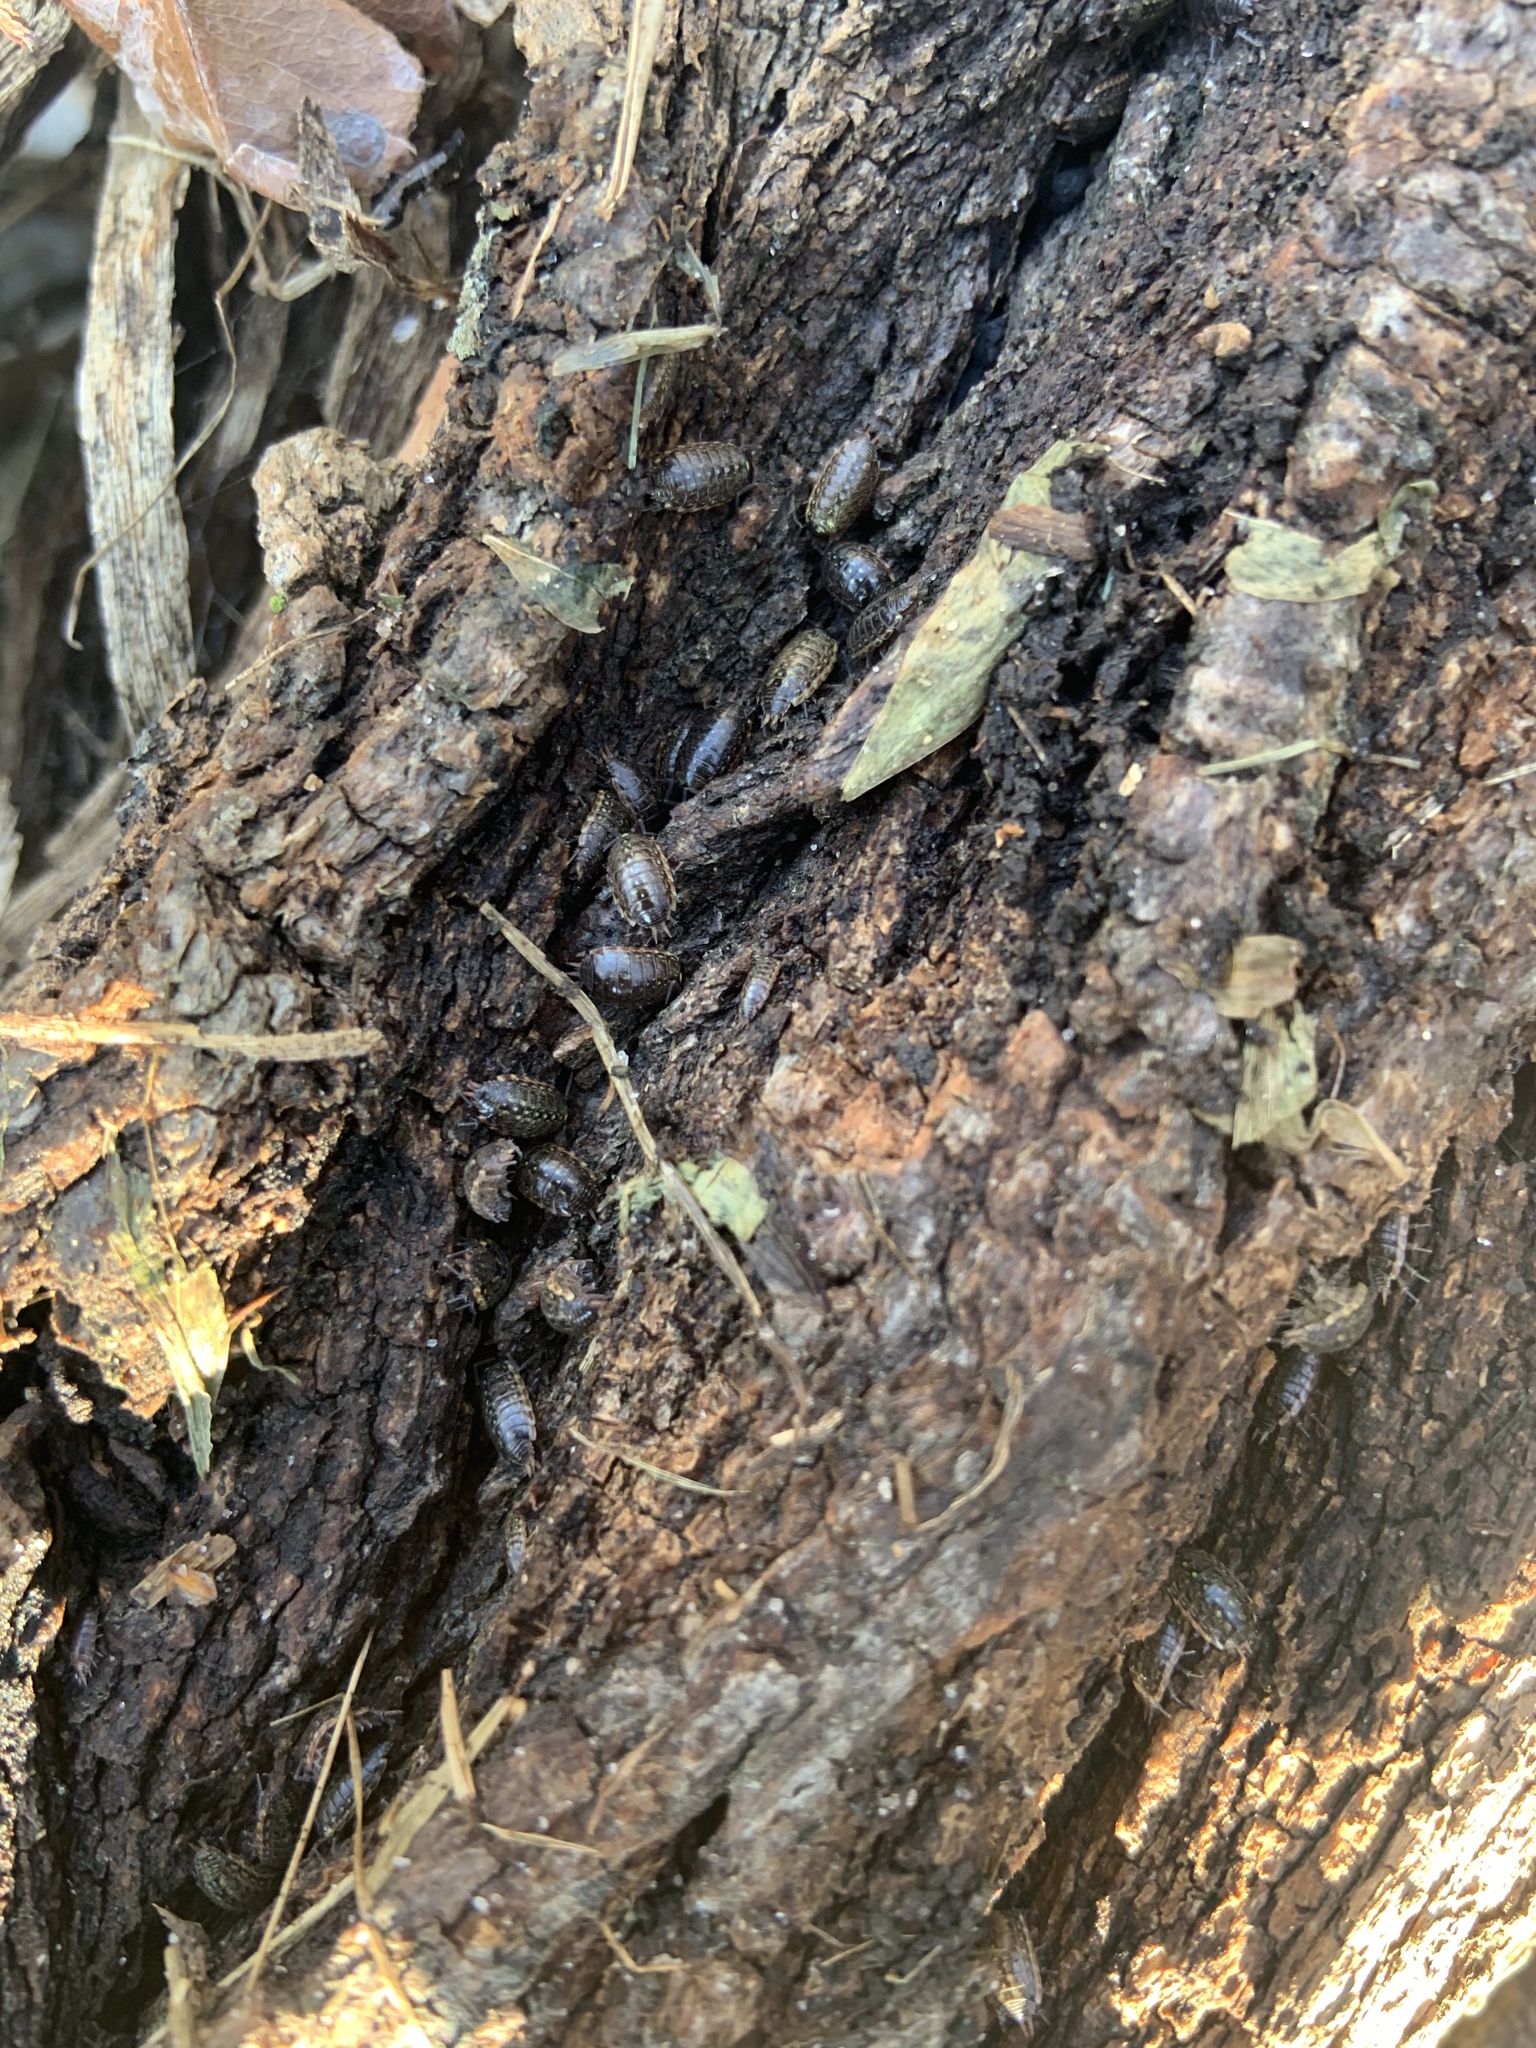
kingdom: Animalia
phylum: Arthropoda
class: Malacostraca
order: Isopoda
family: Philosciidae
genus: Philoscia
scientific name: Philoscia muscorum
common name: Common striped woodlouse
